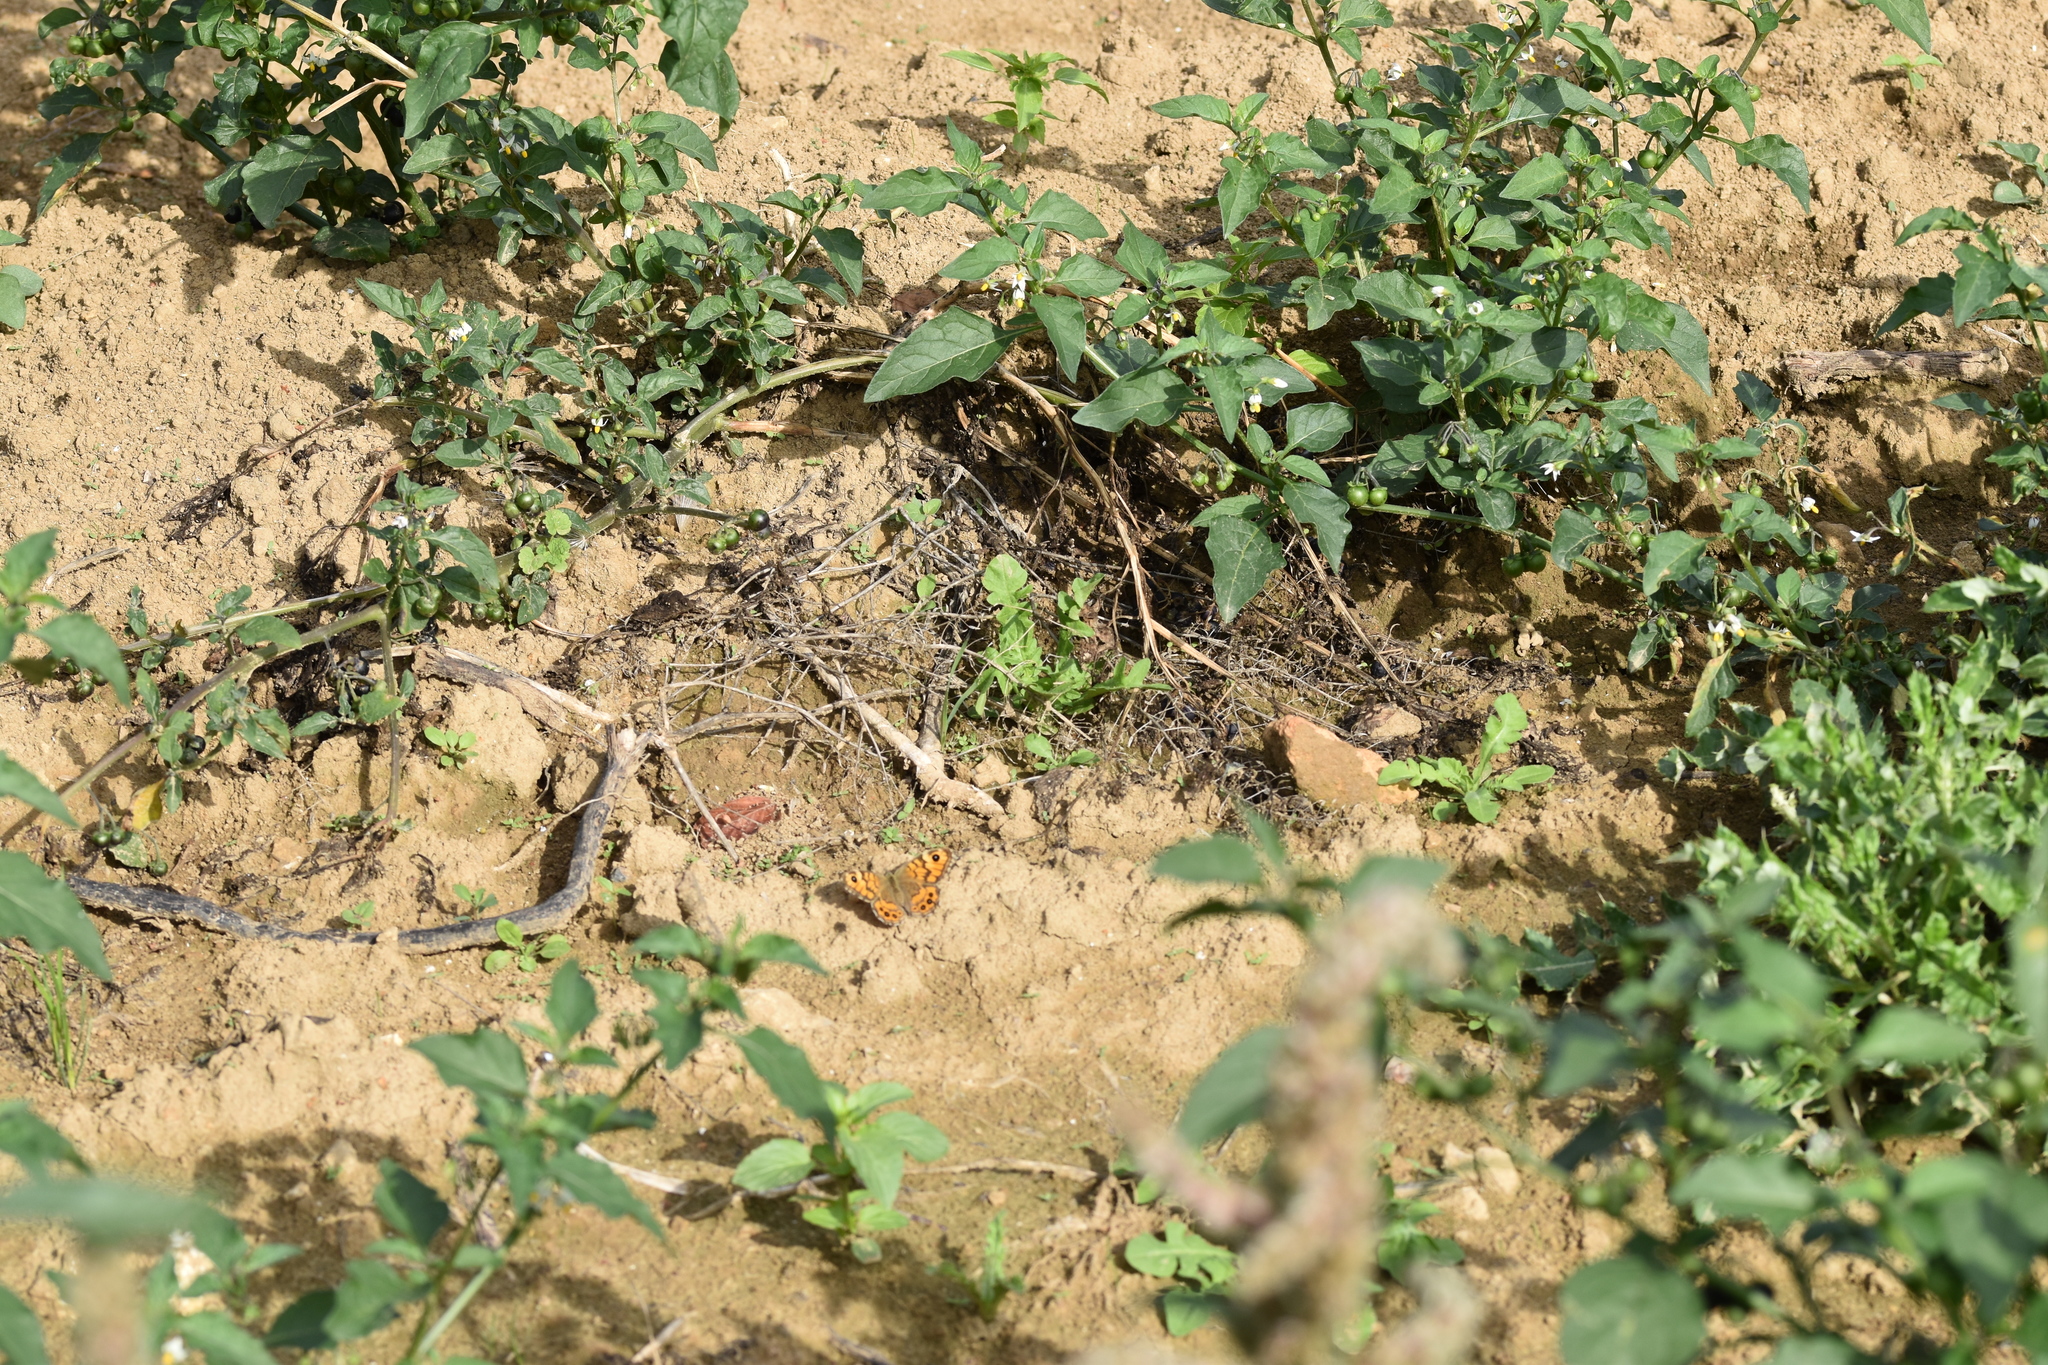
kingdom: Animalia
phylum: Arthropoda
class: Insecta
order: Lepidoptera
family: Nymphalidae
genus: Pararge
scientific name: Pararge Lasiommata megera
